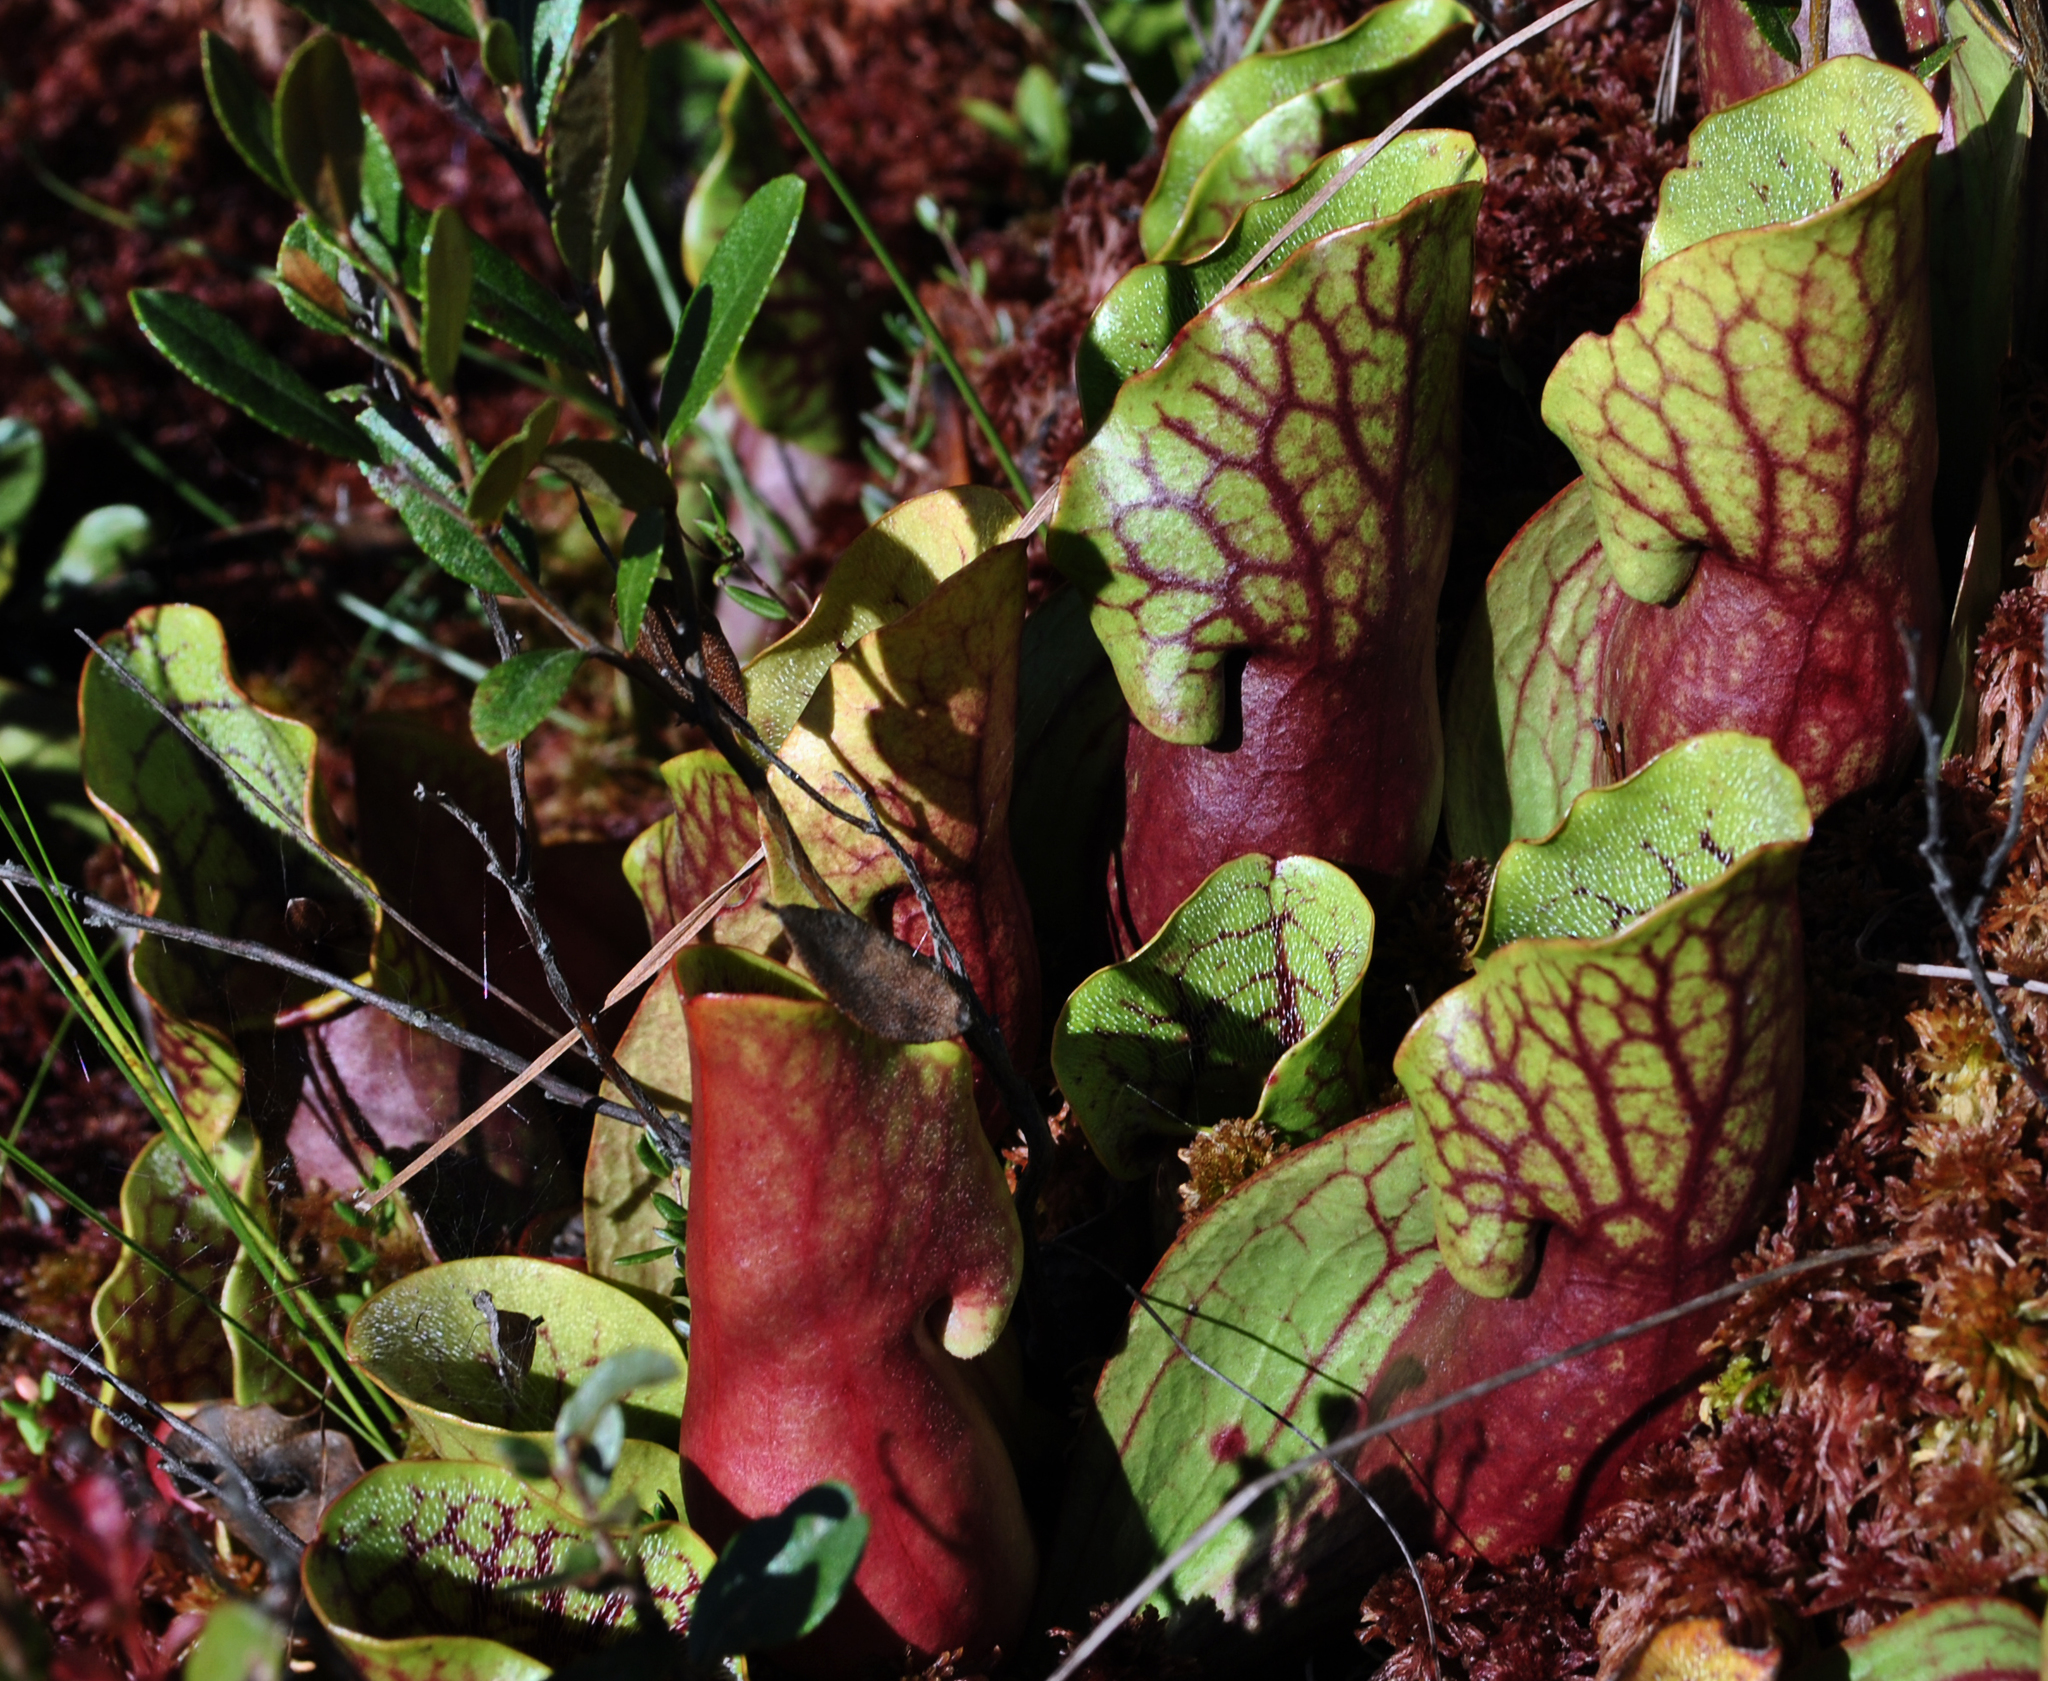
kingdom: Plantae
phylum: Tracheophyta
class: Magnoliopsida
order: Ericales
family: Sarraceniaceae
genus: Sarracenia
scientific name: Sarracenia purpurea
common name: Pitcherplant
